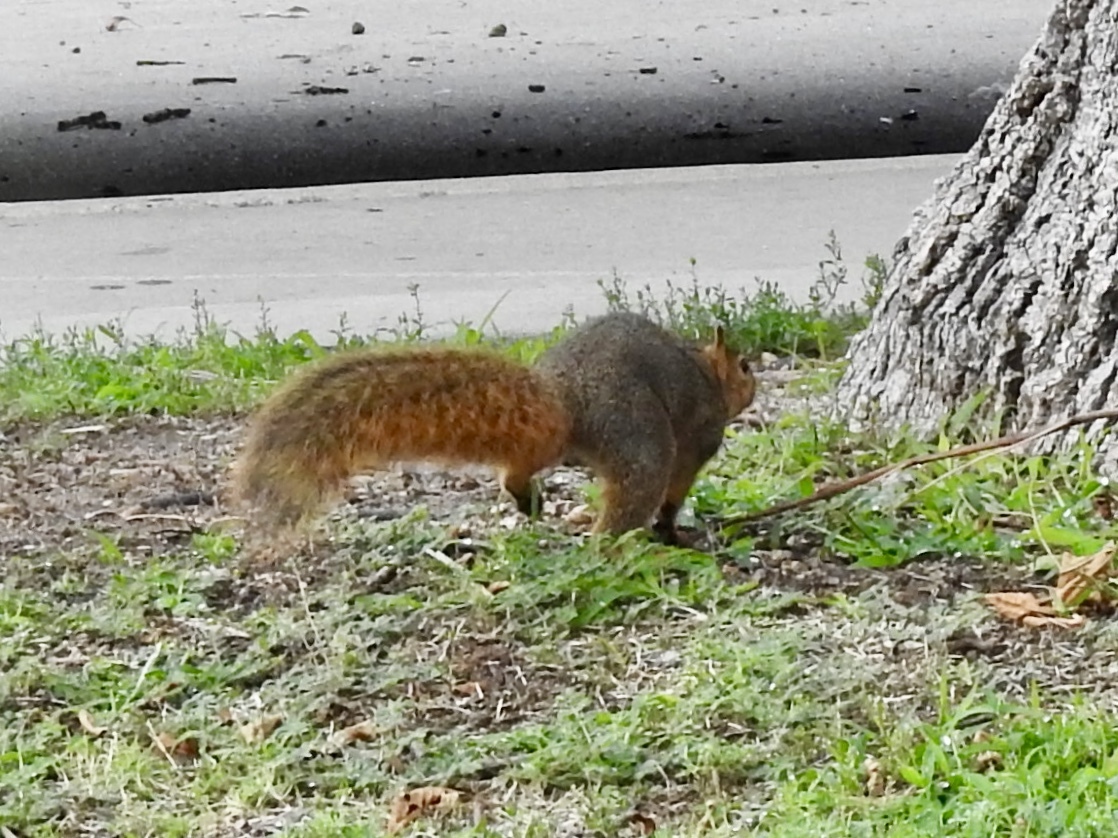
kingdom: Animalia
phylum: Chordata
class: Mammalia
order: Rodentia
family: Sciuridae
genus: Sciurus
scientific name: Sciurus niger
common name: Fox squirrel
